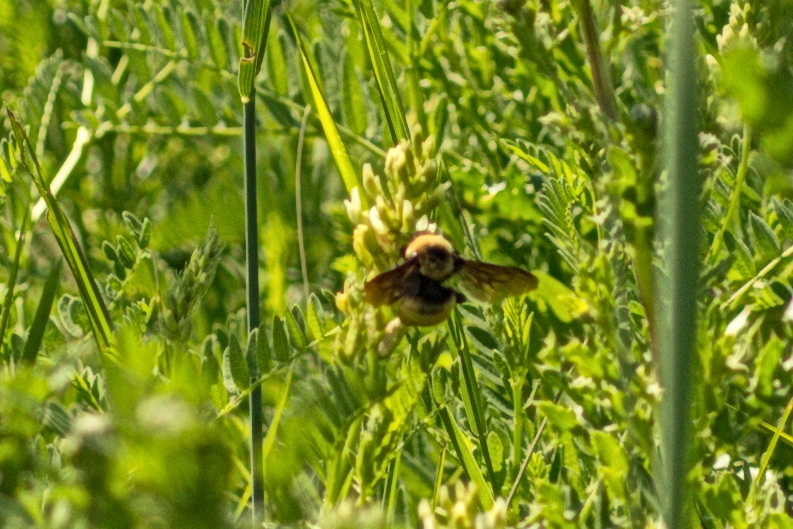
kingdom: Animalia
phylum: Arthropoda
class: Insecta
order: Hymenoptera
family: Apidae
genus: Bombus
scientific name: Bombus nevadensis
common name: Nevada bumble bee
